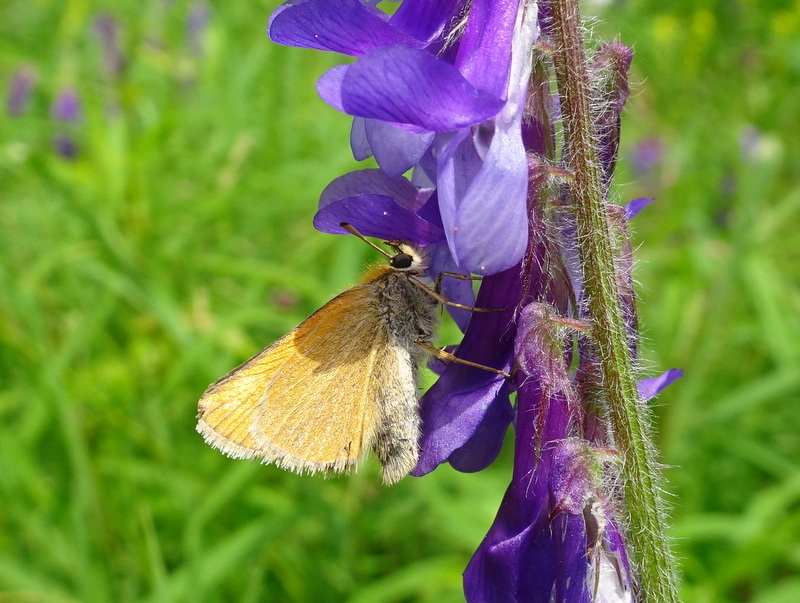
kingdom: Animalia
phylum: Arthropoda
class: Insecta
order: Lepidoptera
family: Hesperiidae
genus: Thymelicus
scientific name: Thymelicus lineola
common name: Essex skipper
